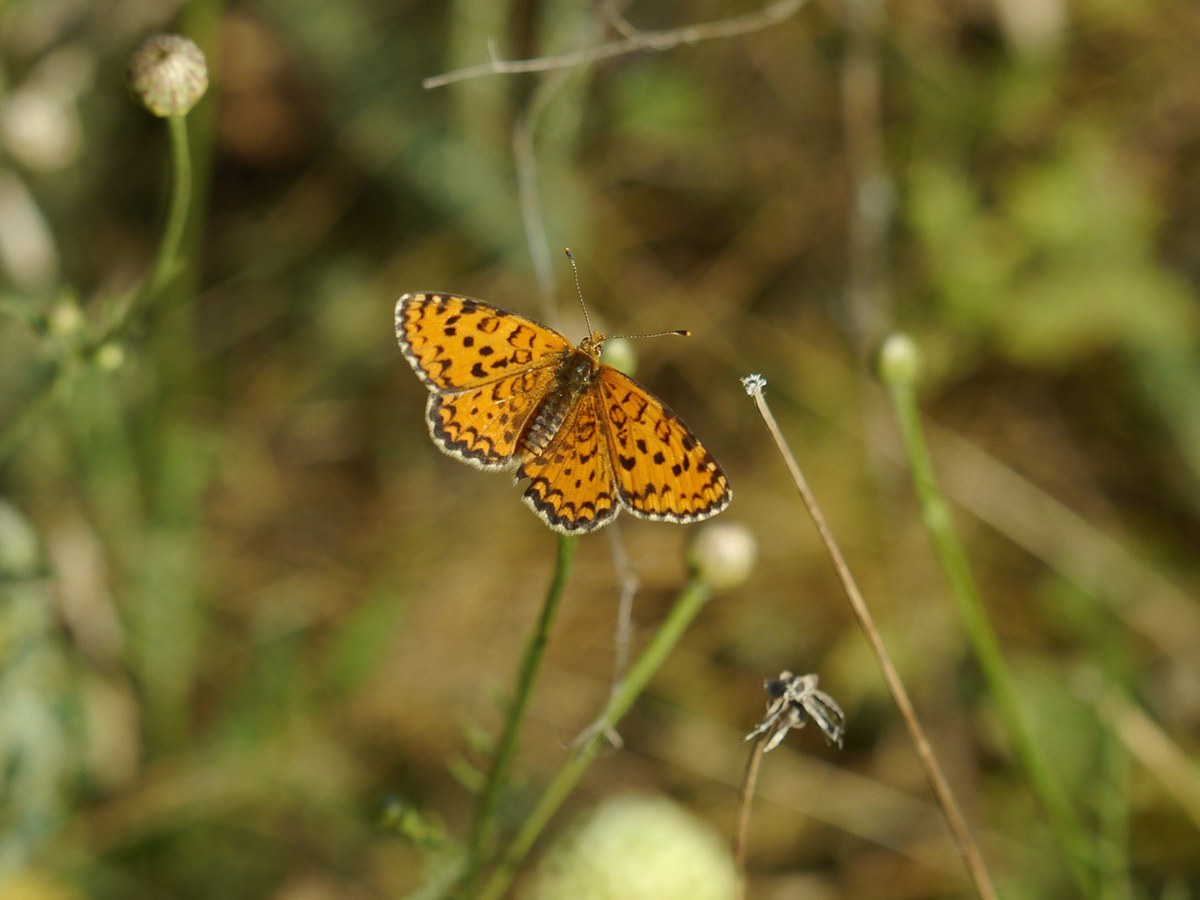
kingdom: Animalia
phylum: Arthropoda
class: Insecta
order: Lepidoptera
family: Nymphalidae
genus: Melitaea
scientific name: Melitaea trivia
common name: Lesser spotted fritillary
